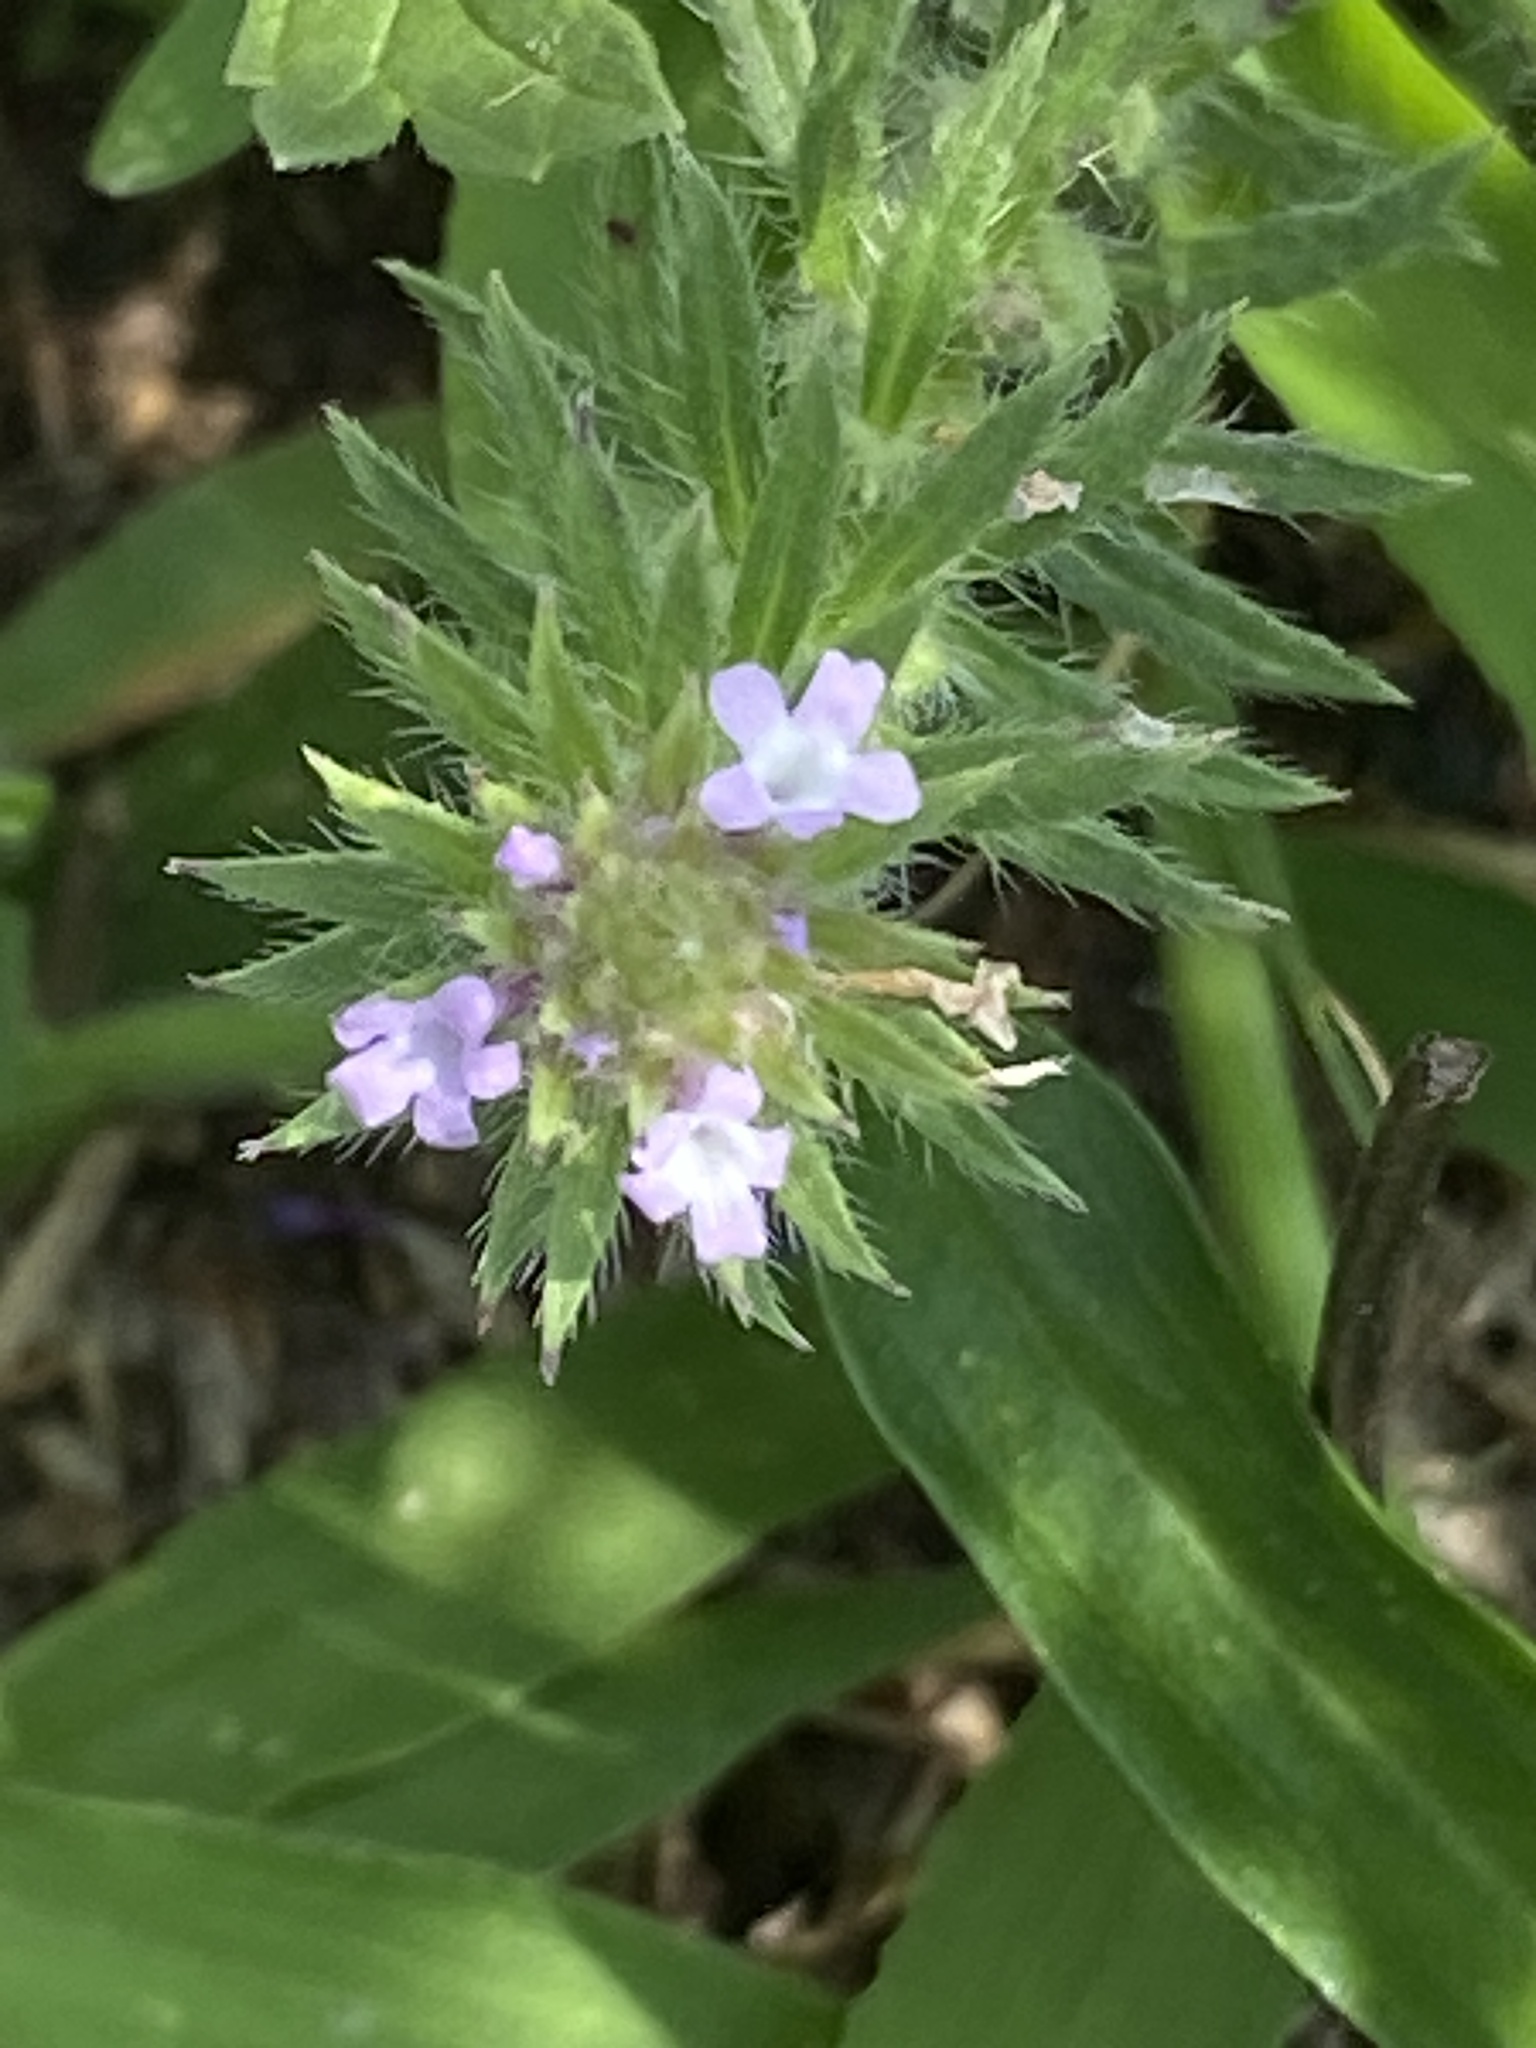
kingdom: Plantae
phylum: Tracheophyta
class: Magnoliopsida
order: Lamiales
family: Verbenaceae
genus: Verbena
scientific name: Verbena bracteata
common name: Bracted vervain
